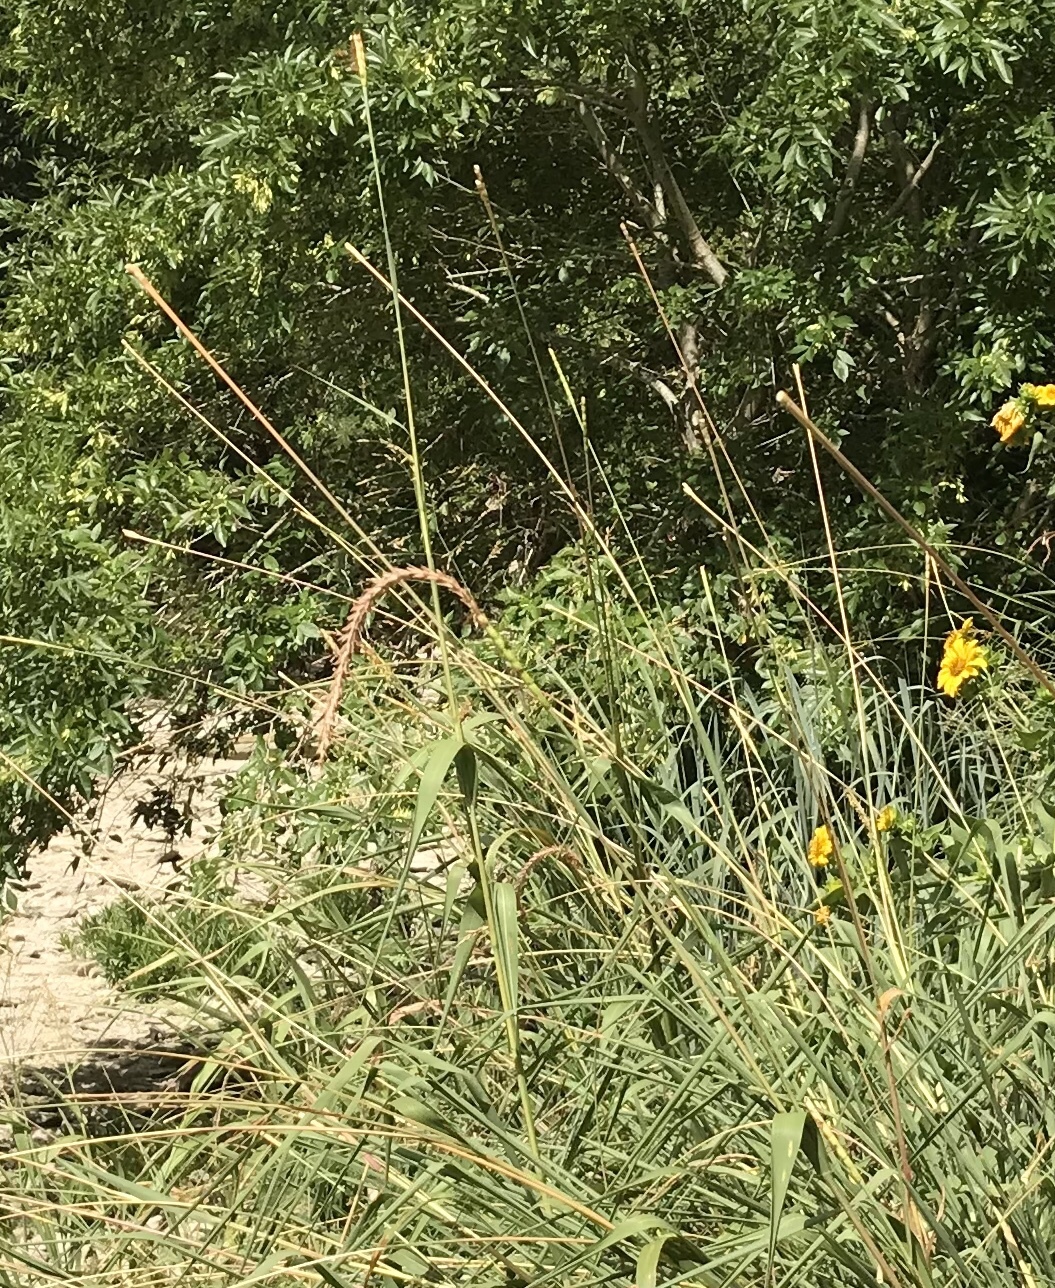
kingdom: Plantae
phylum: Tracheophyta
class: Liliopsida
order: Poales
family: Poaceae
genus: Tripsacum
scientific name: Tripsacum dactyloides
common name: Buffalo-grass
